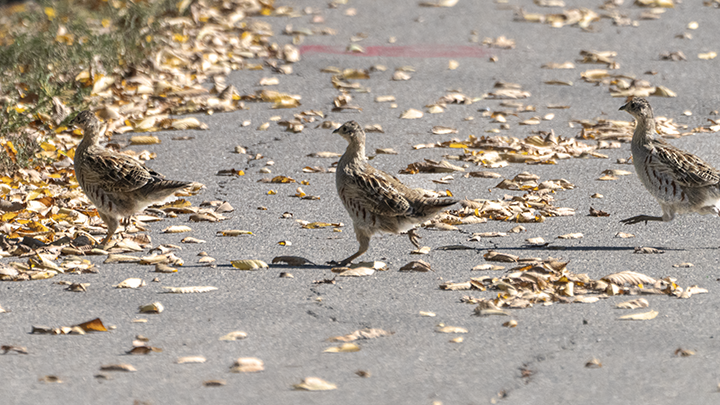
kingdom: Animalia
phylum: Chordata
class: Aves
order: Galliformes
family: Phasianidae
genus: Perdix
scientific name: Perdix perdix
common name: Grey partridge
